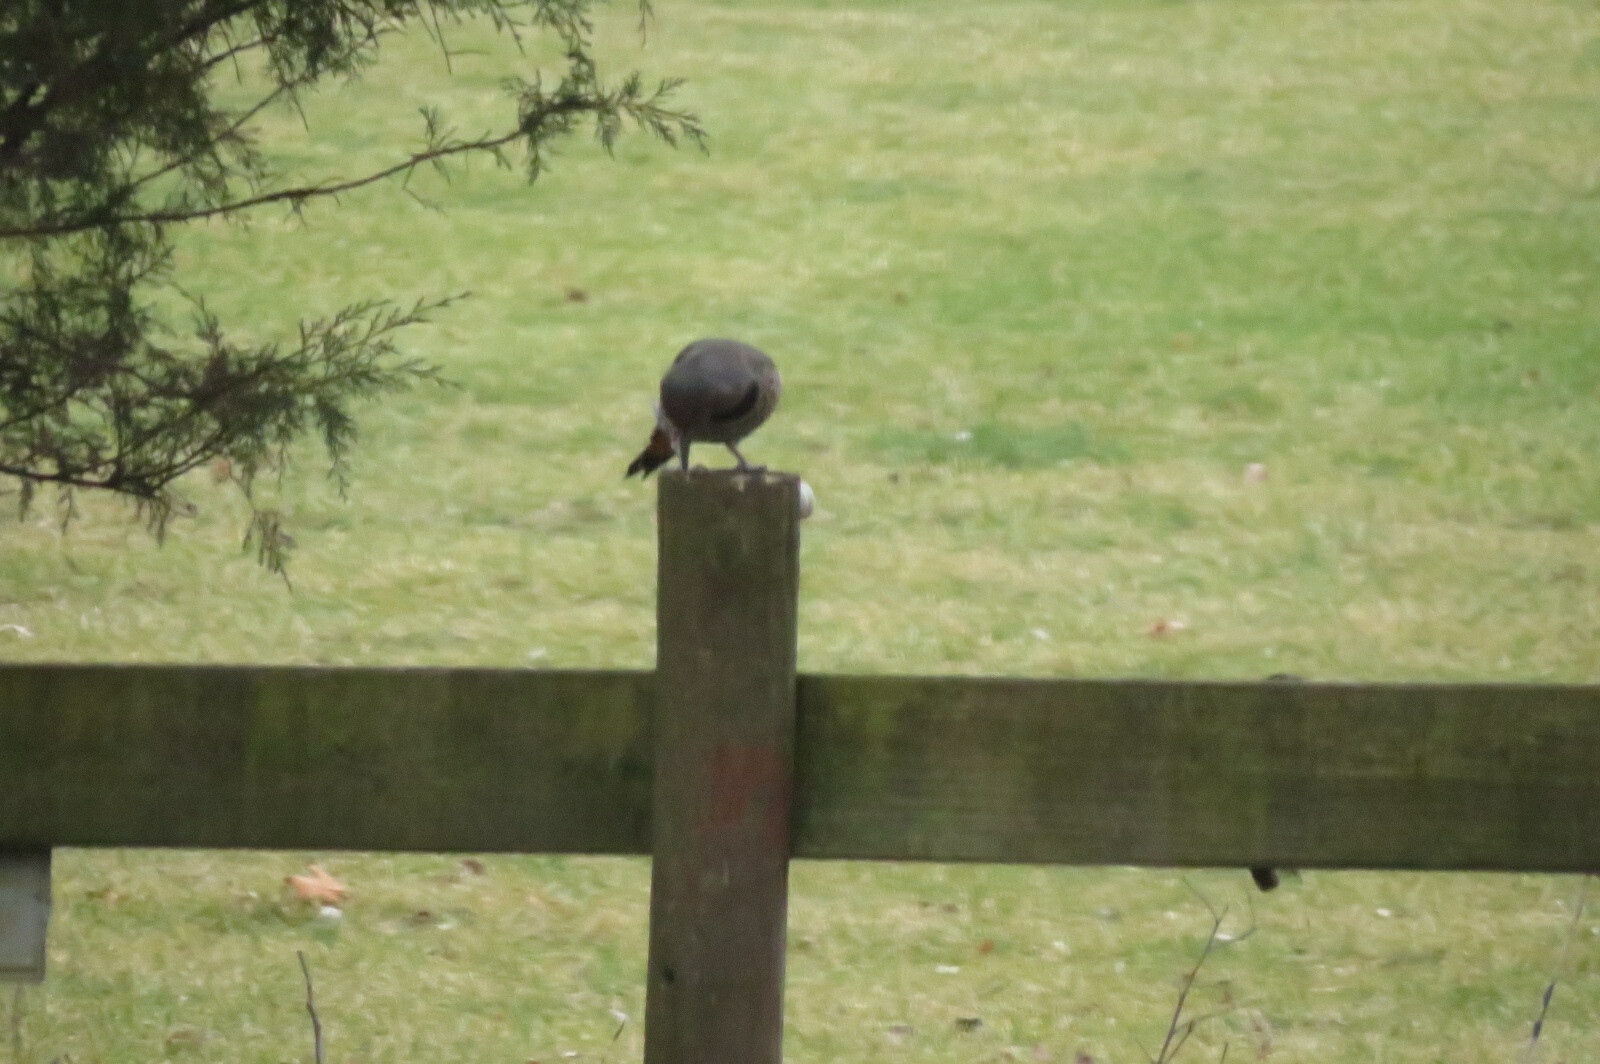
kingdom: Animalia
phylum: Chordata
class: Aves
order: Piciformes
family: Picidae
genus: Colaptes
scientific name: Colaptes
